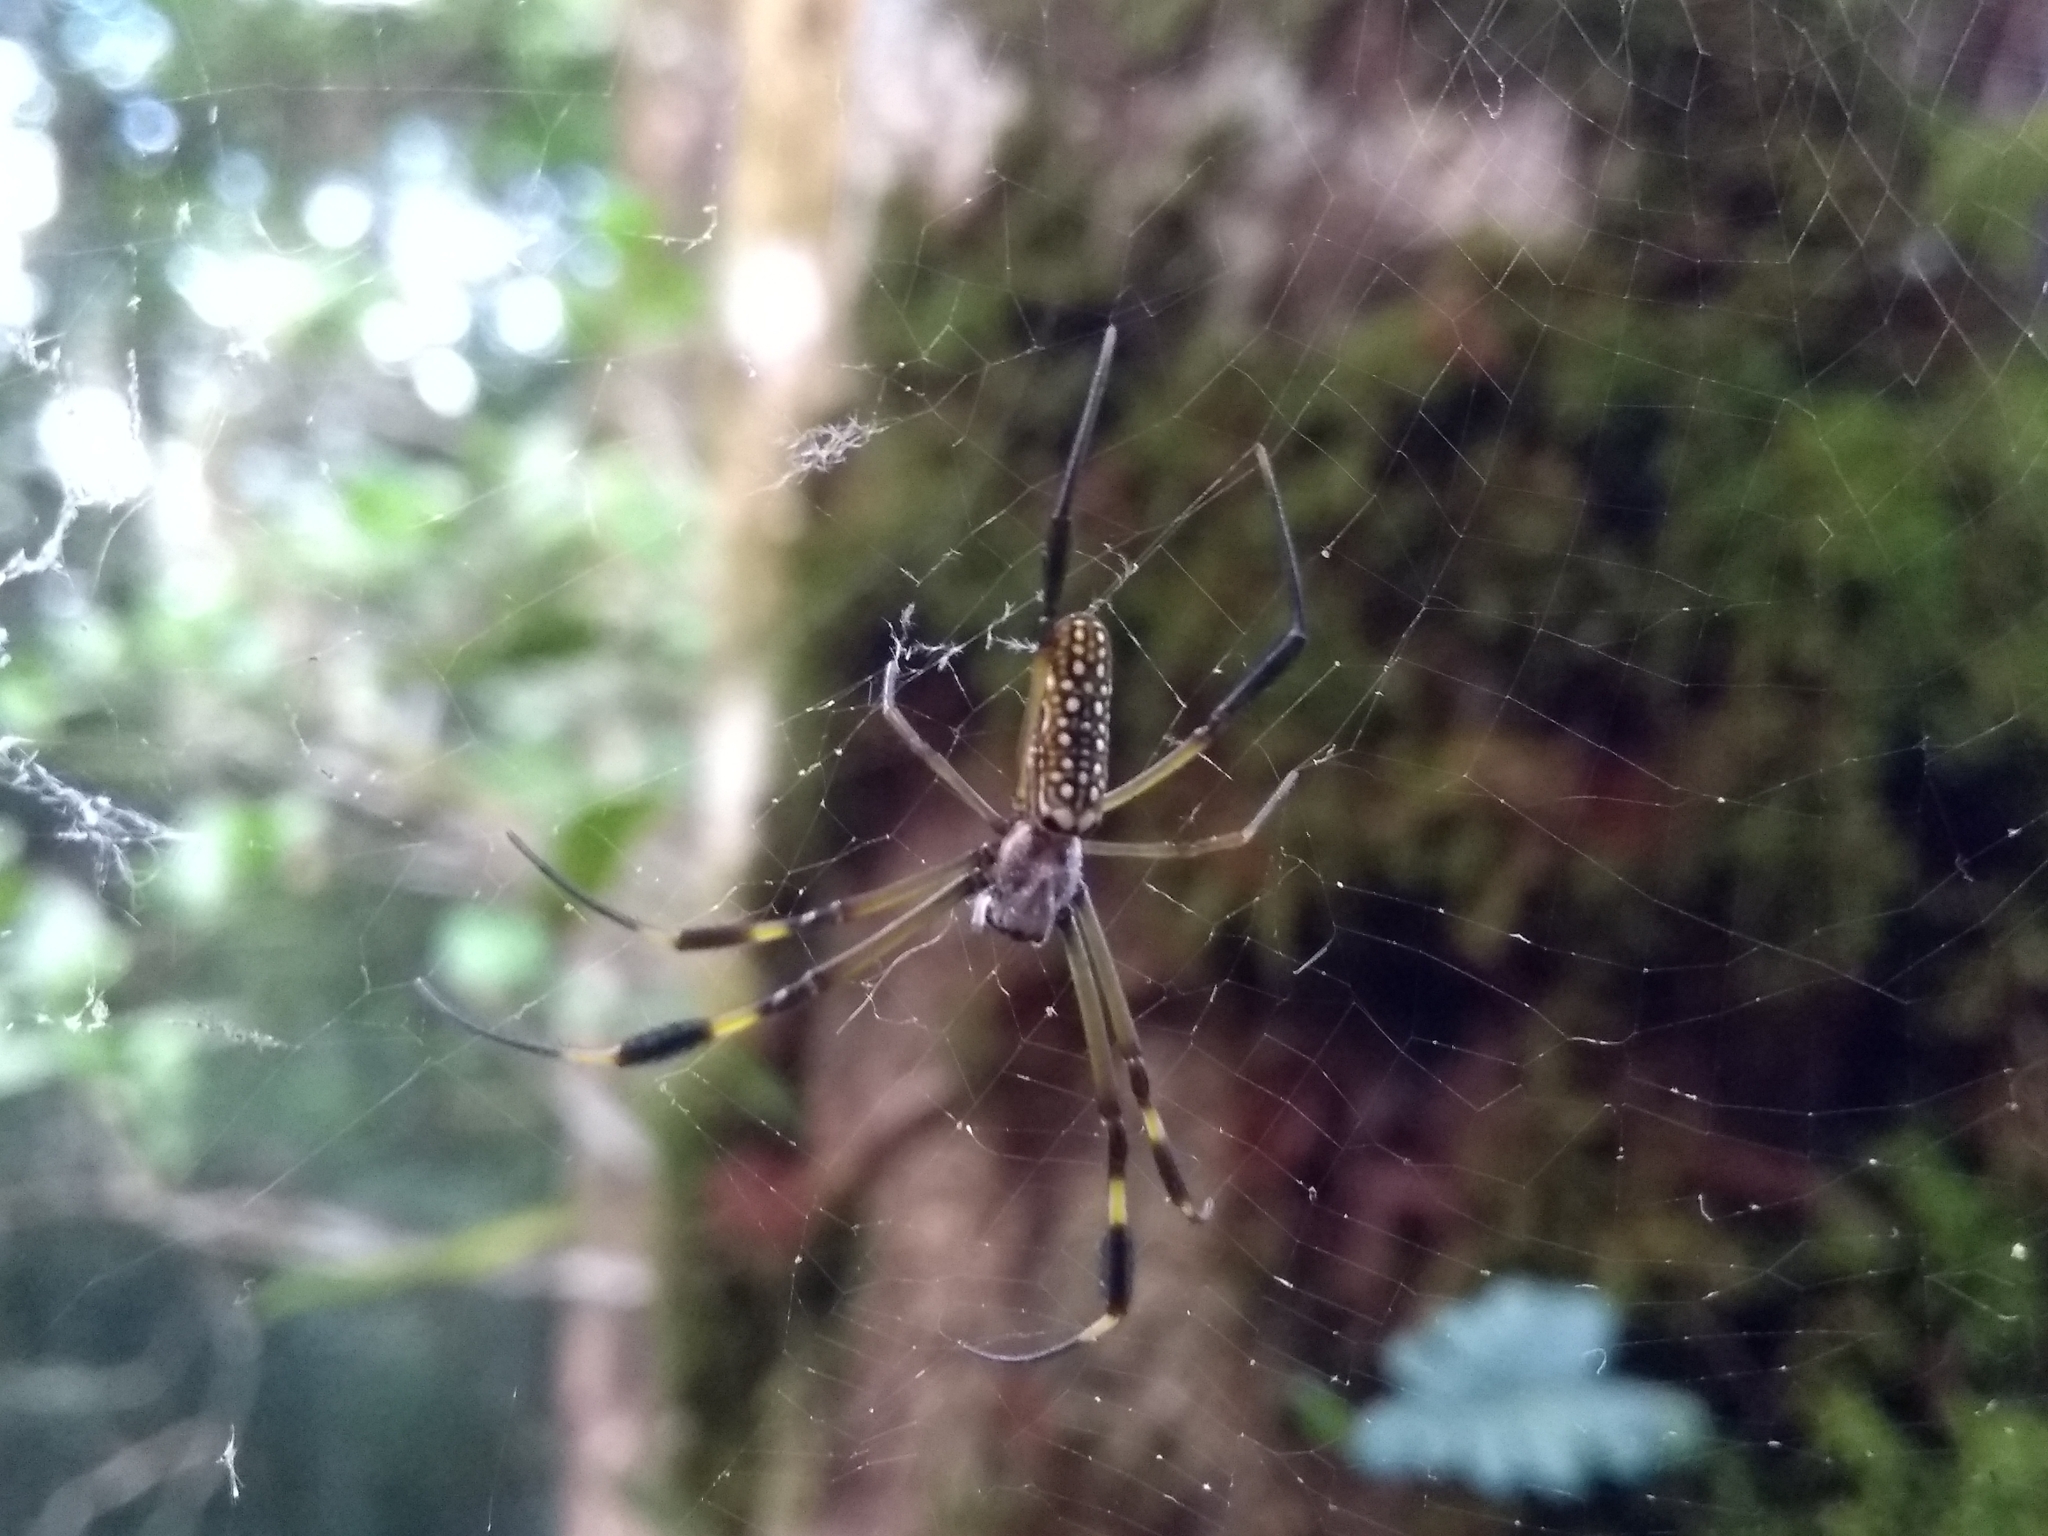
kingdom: Animalia
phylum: Arthropoda
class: Arachnida
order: Araneae
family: Araneidae
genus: Trichonephila
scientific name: Trichonephila clavipes
